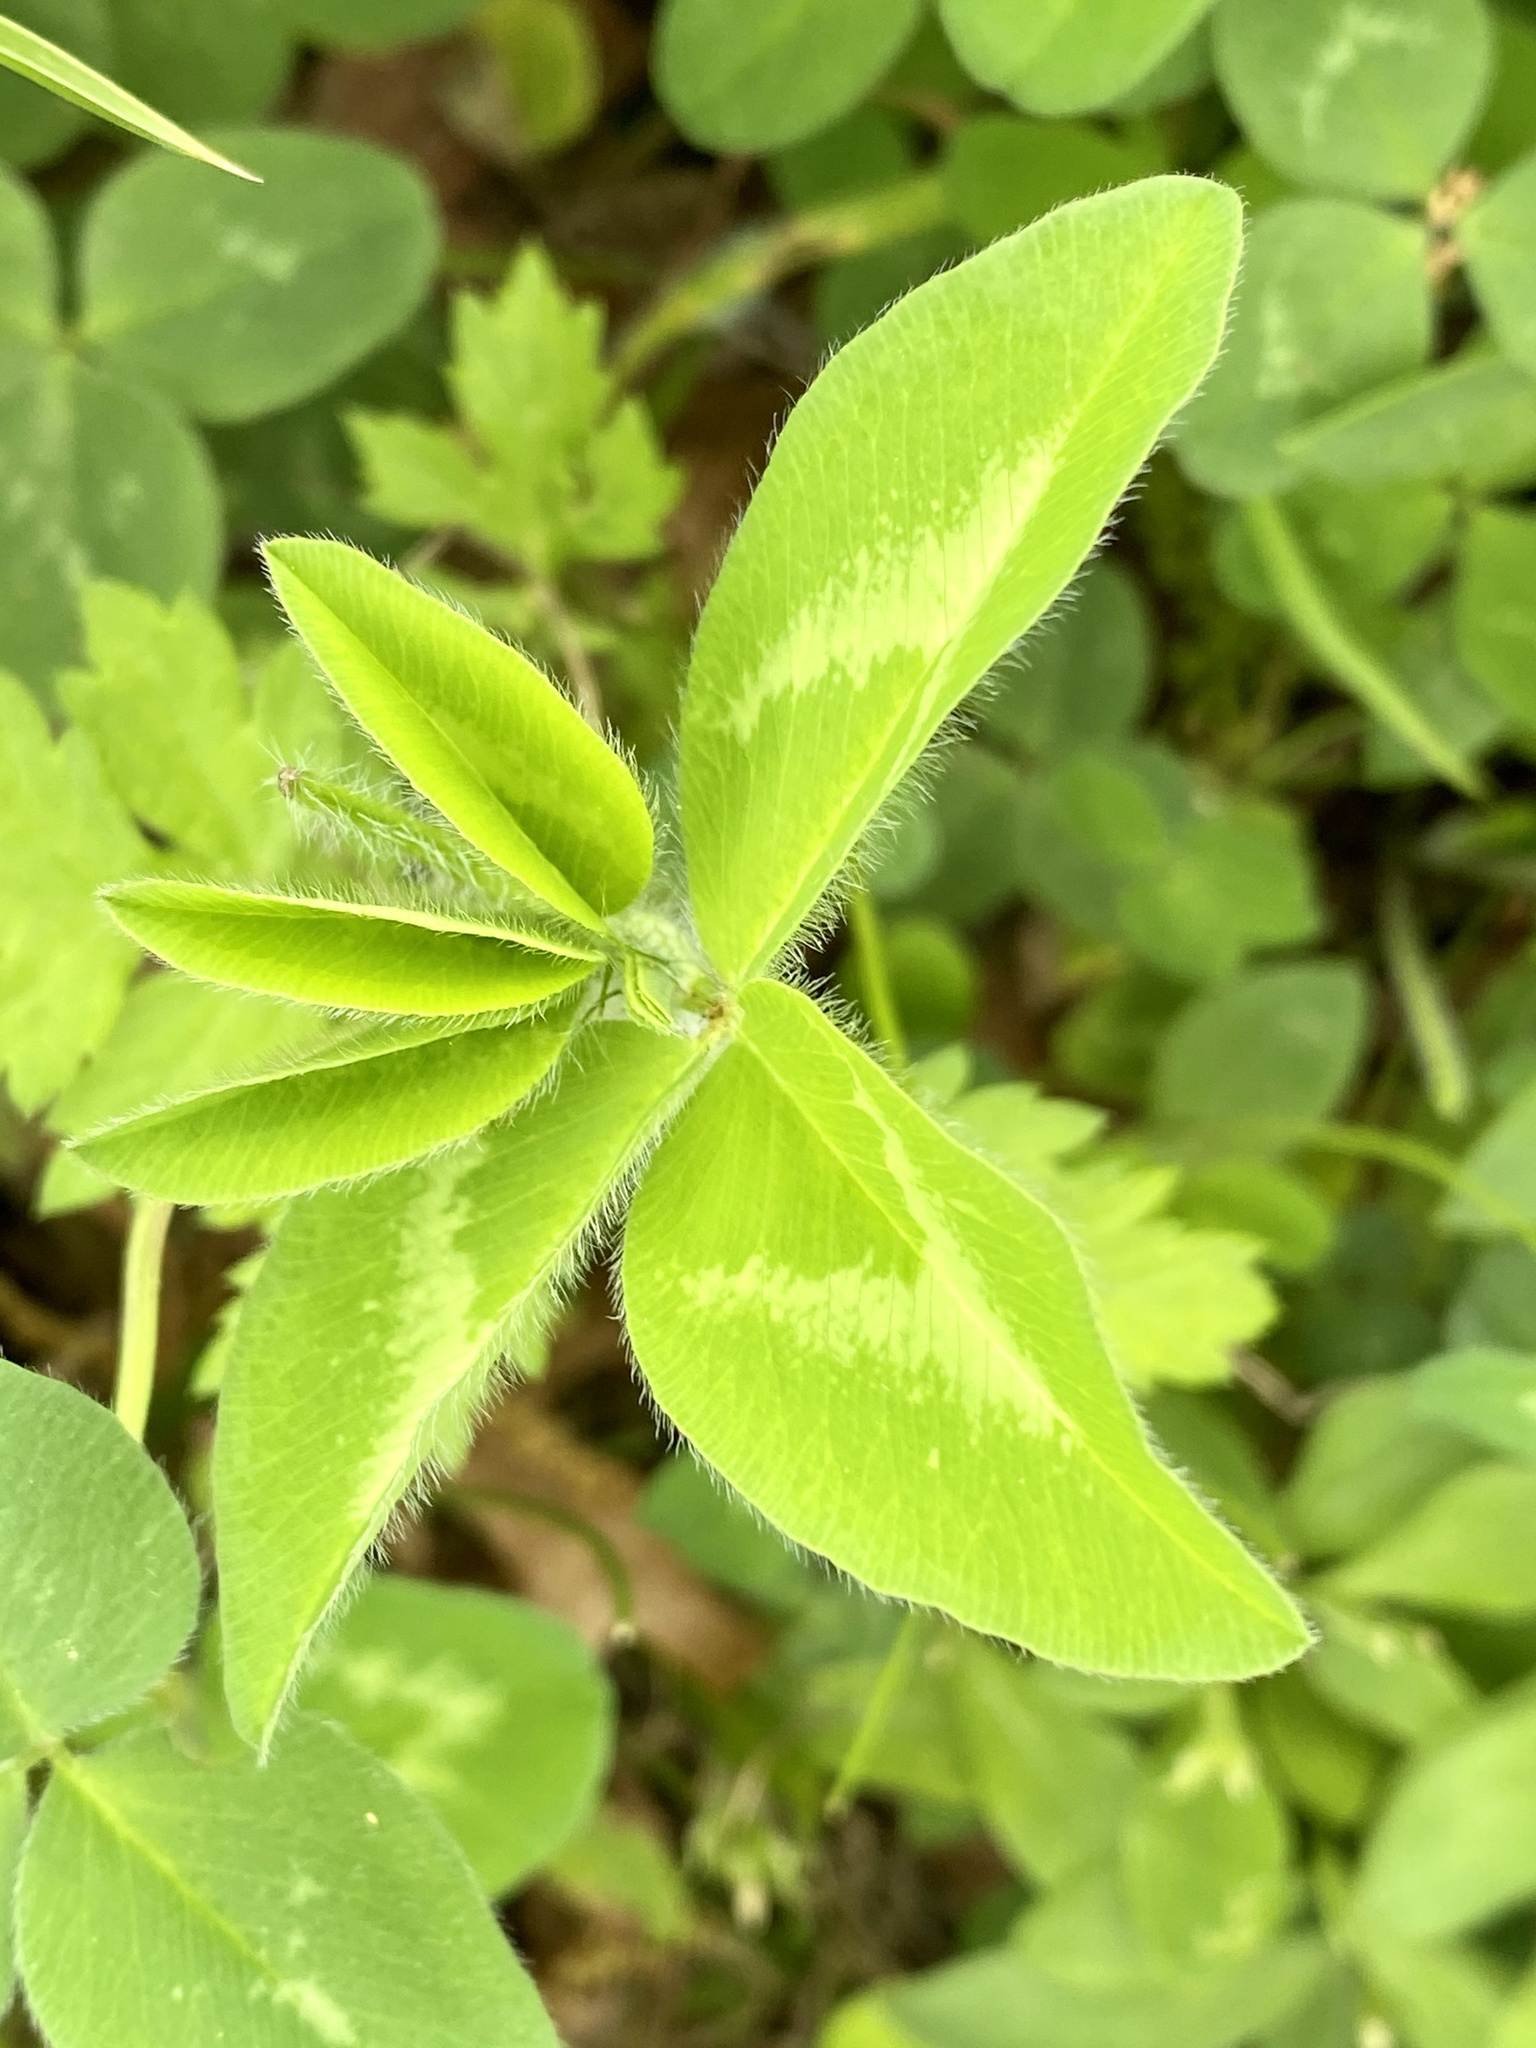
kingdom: Plantae
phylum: Tracheophyta
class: Magnoliopsida
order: Fabales
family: Fabaceae
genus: Trifolium
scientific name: Trifolium pratense
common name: Red clover
